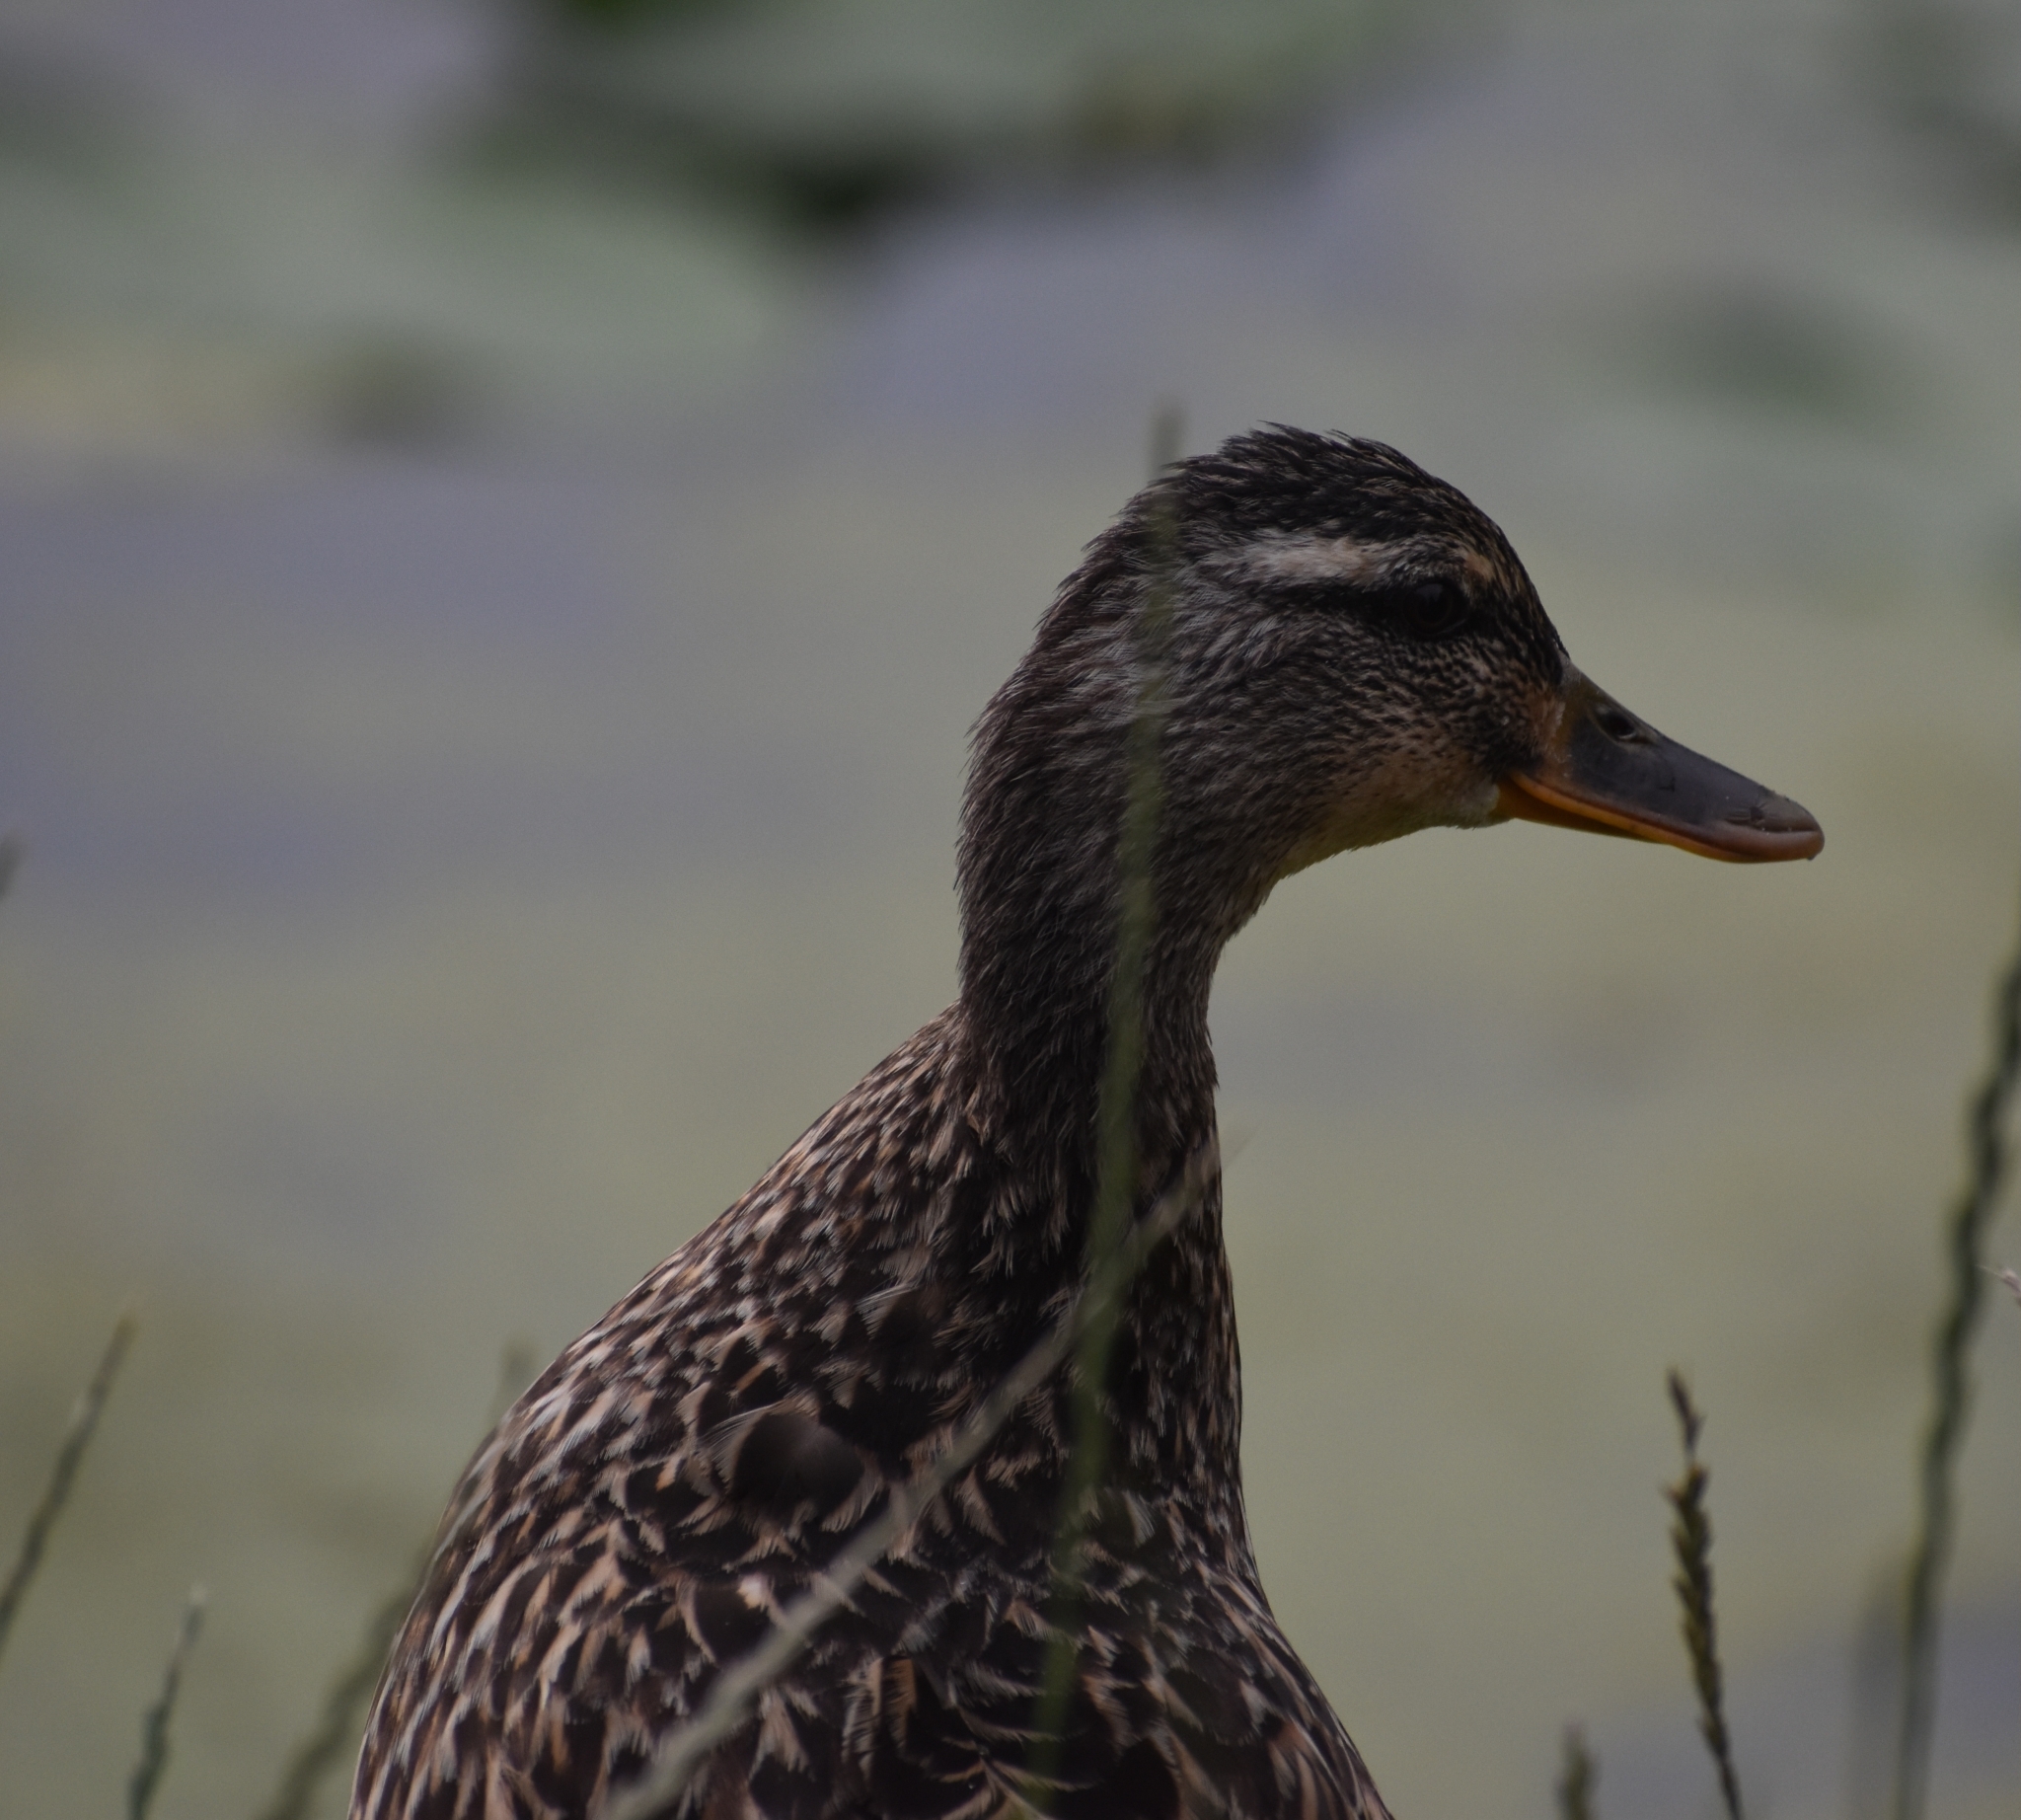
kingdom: Animalia
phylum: Chordata
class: Aves
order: Anseriformes
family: Anatidae
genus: Anas
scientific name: Anas platyrhynchos
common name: Mallard
